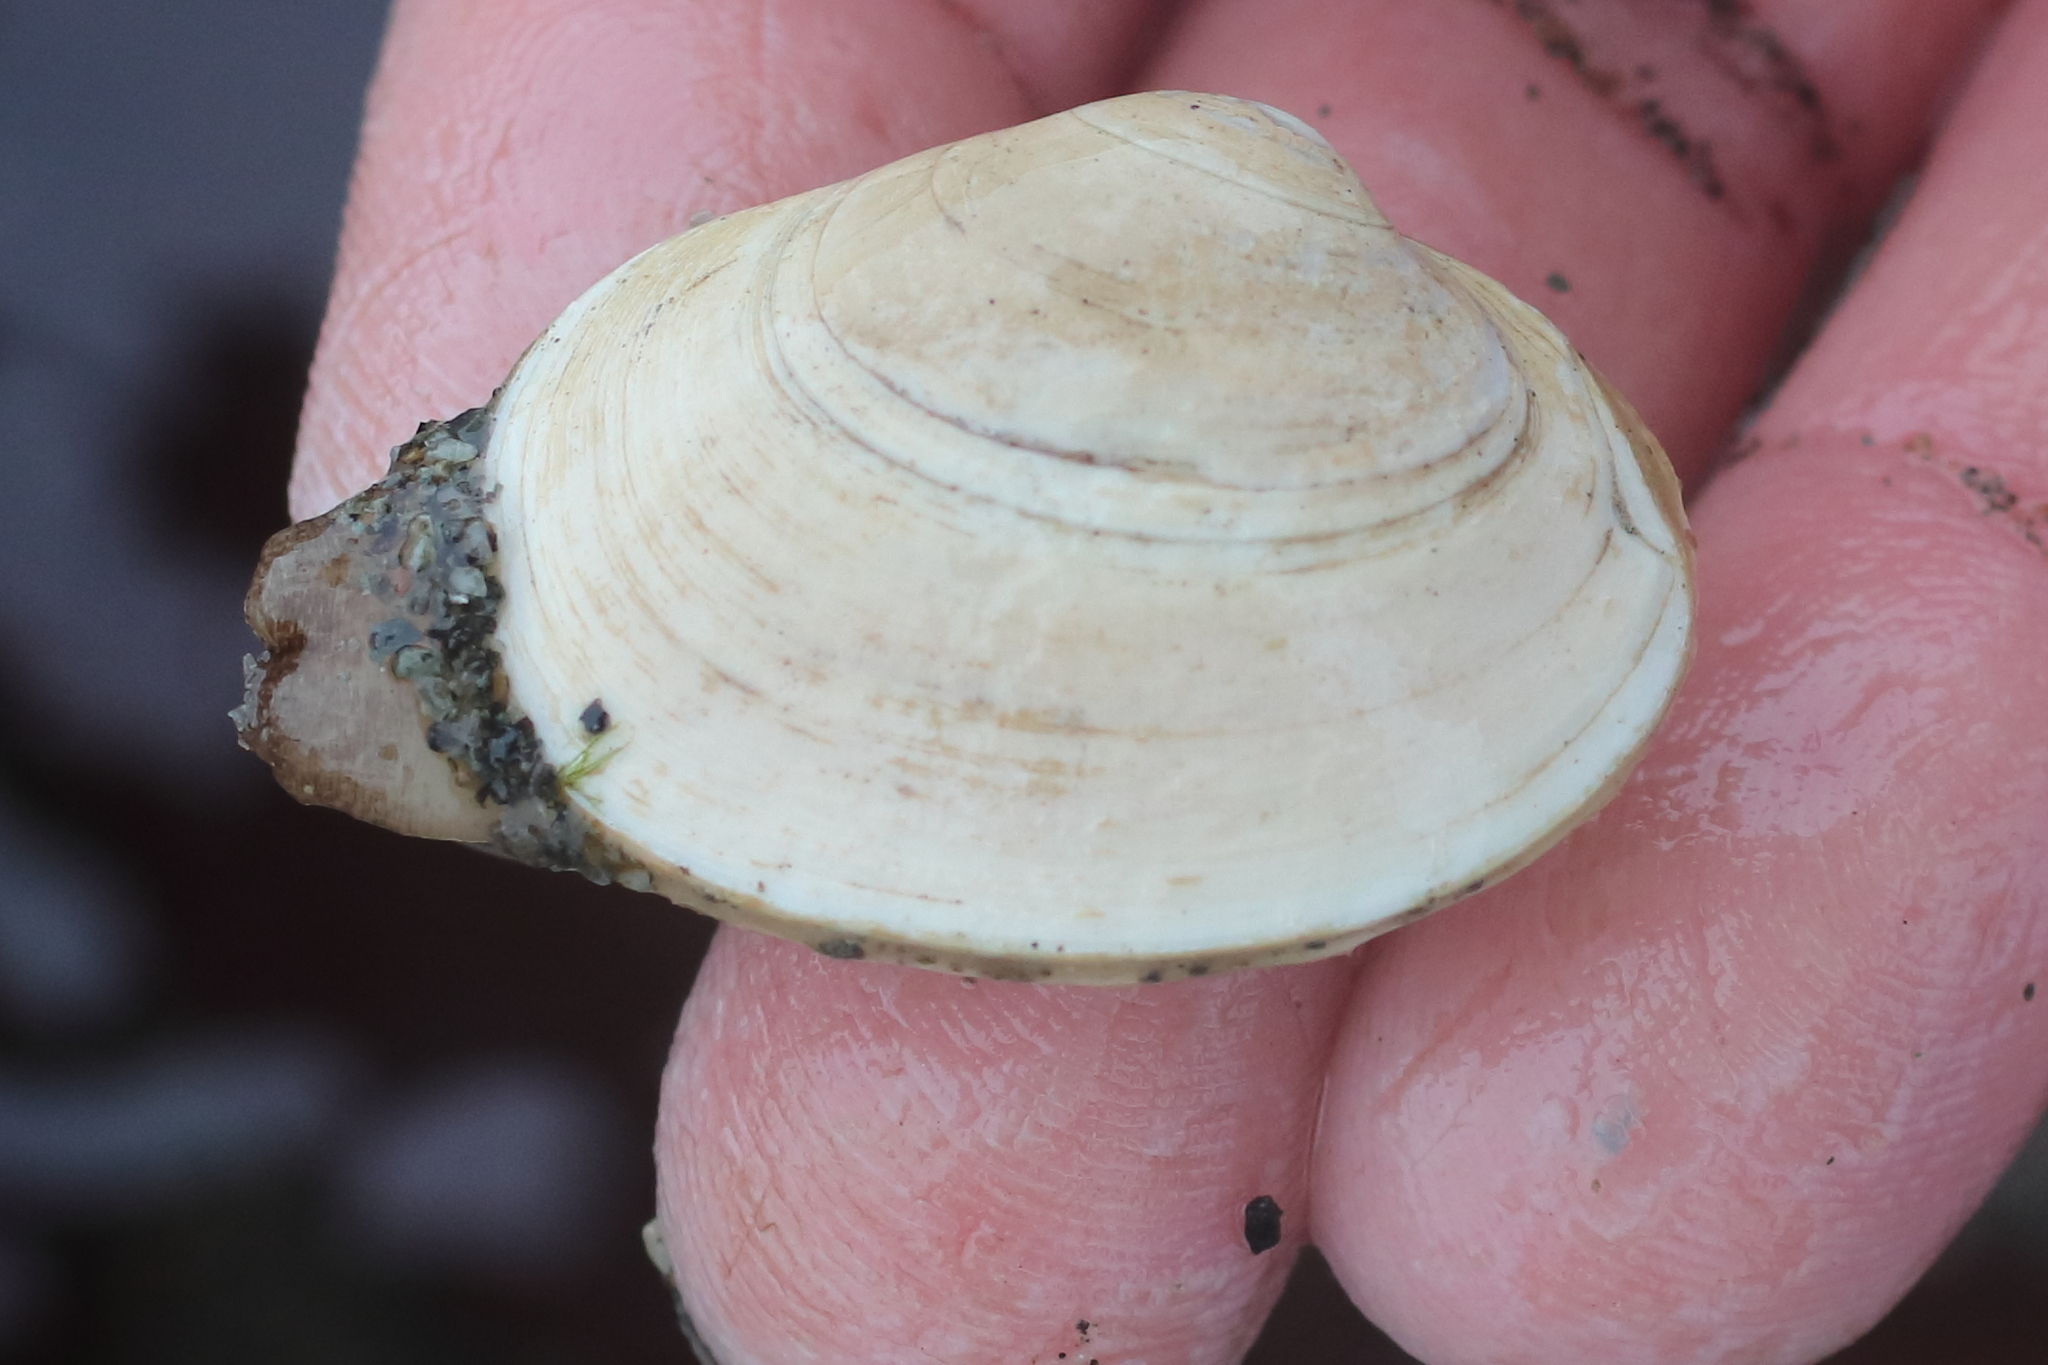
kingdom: Animalia
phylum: Mollusca
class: Bivalvia
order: Venerida
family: Veneridae
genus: Saxidomus
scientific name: Saxidomus gigantea
